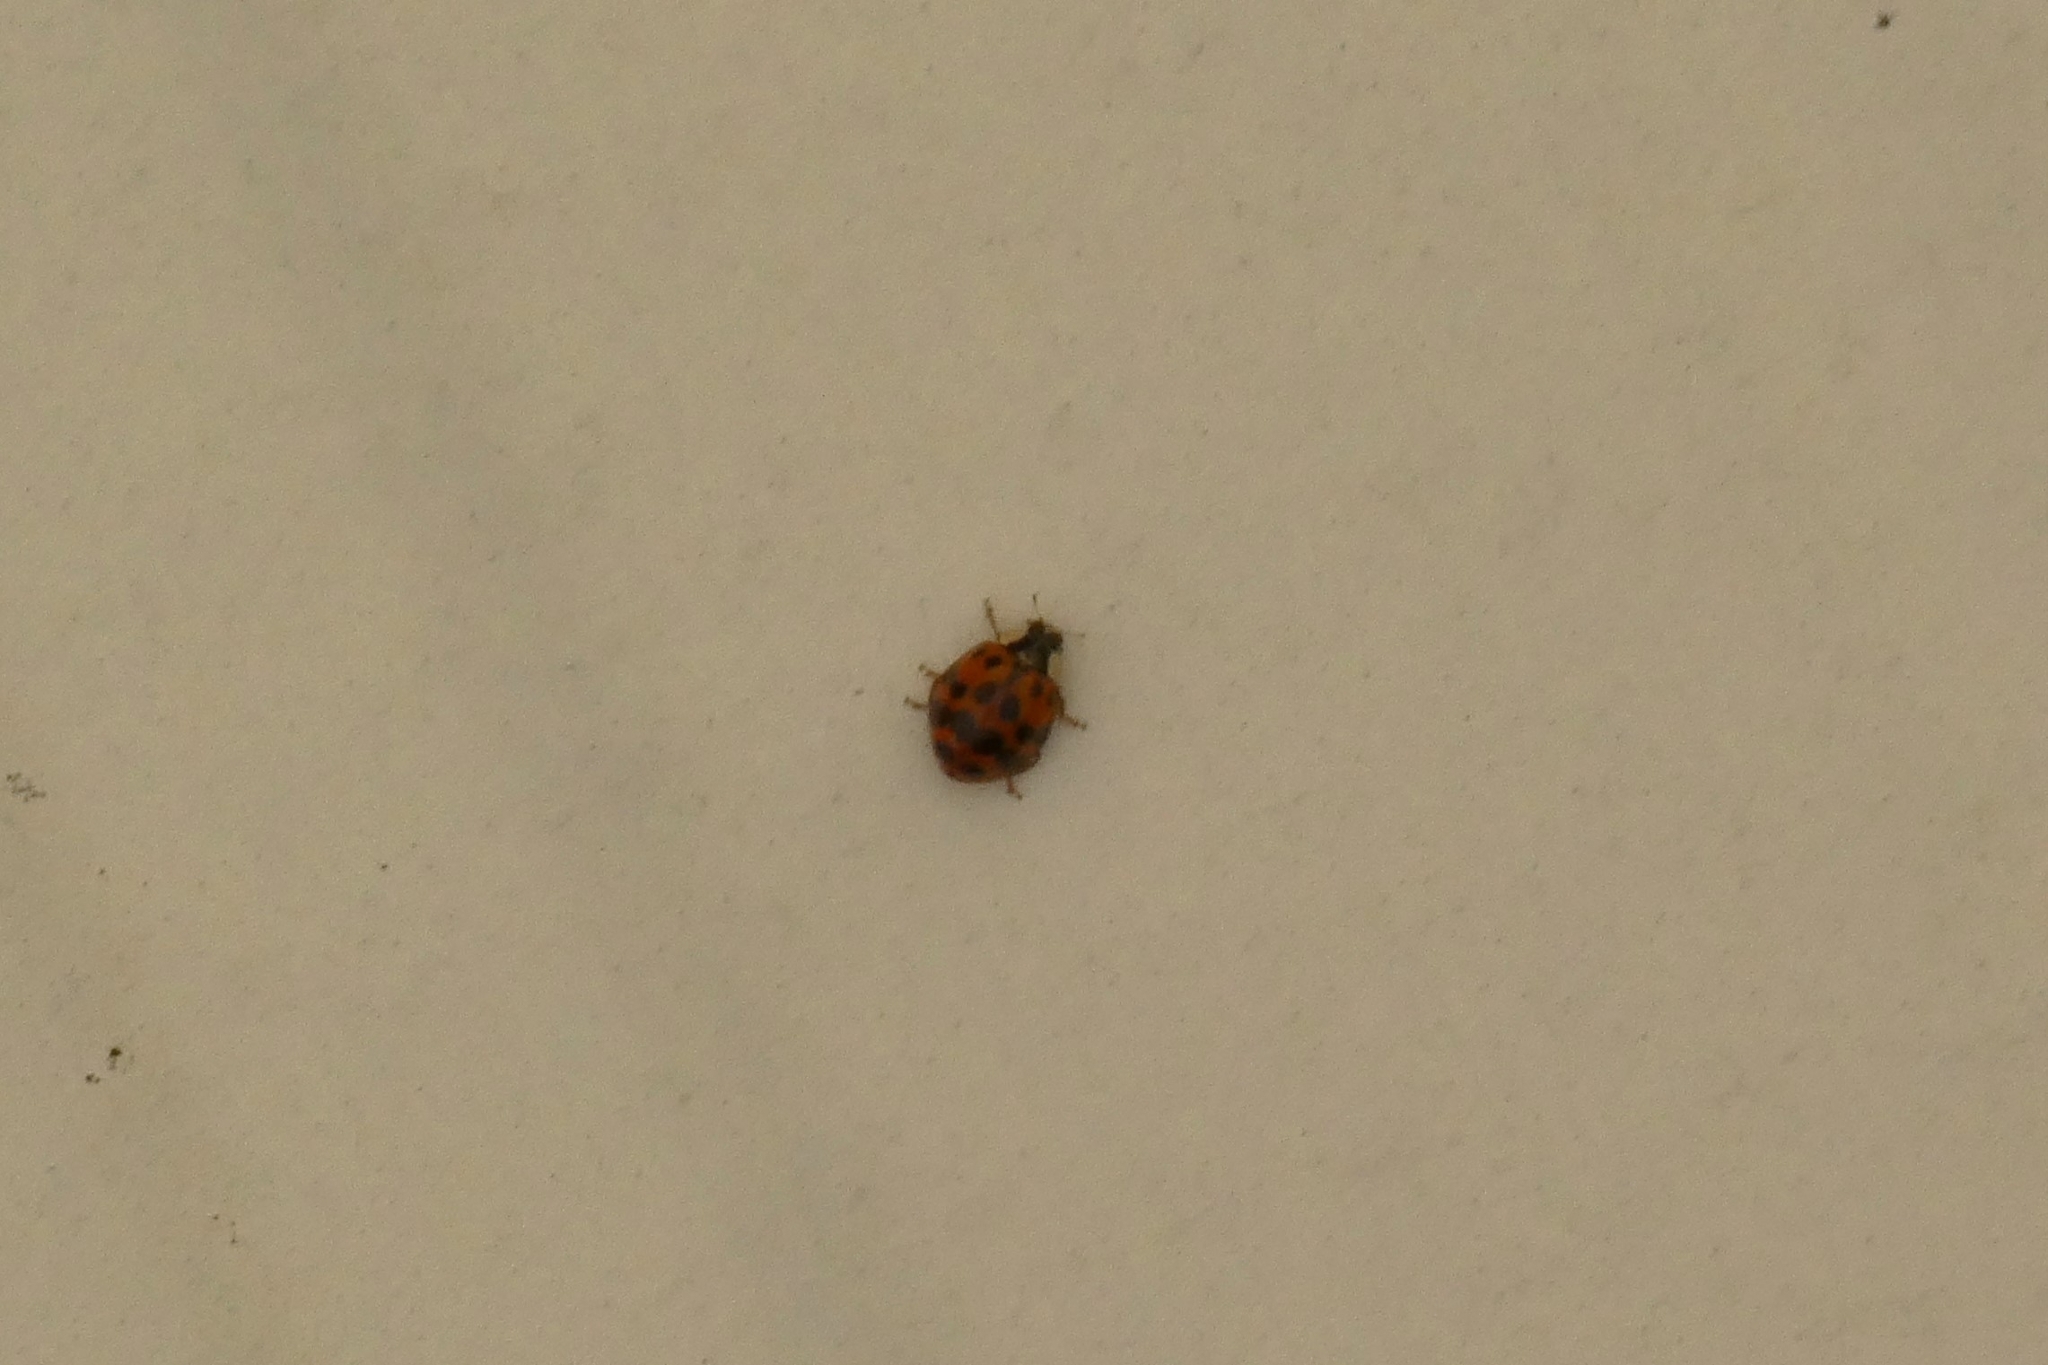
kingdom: Animalia
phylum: Arthropoda
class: Insecta
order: Coleoptera
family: Coccinellidae
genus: Harmonia
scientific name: Harmonia axyridis
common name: Harlequin ladybird
